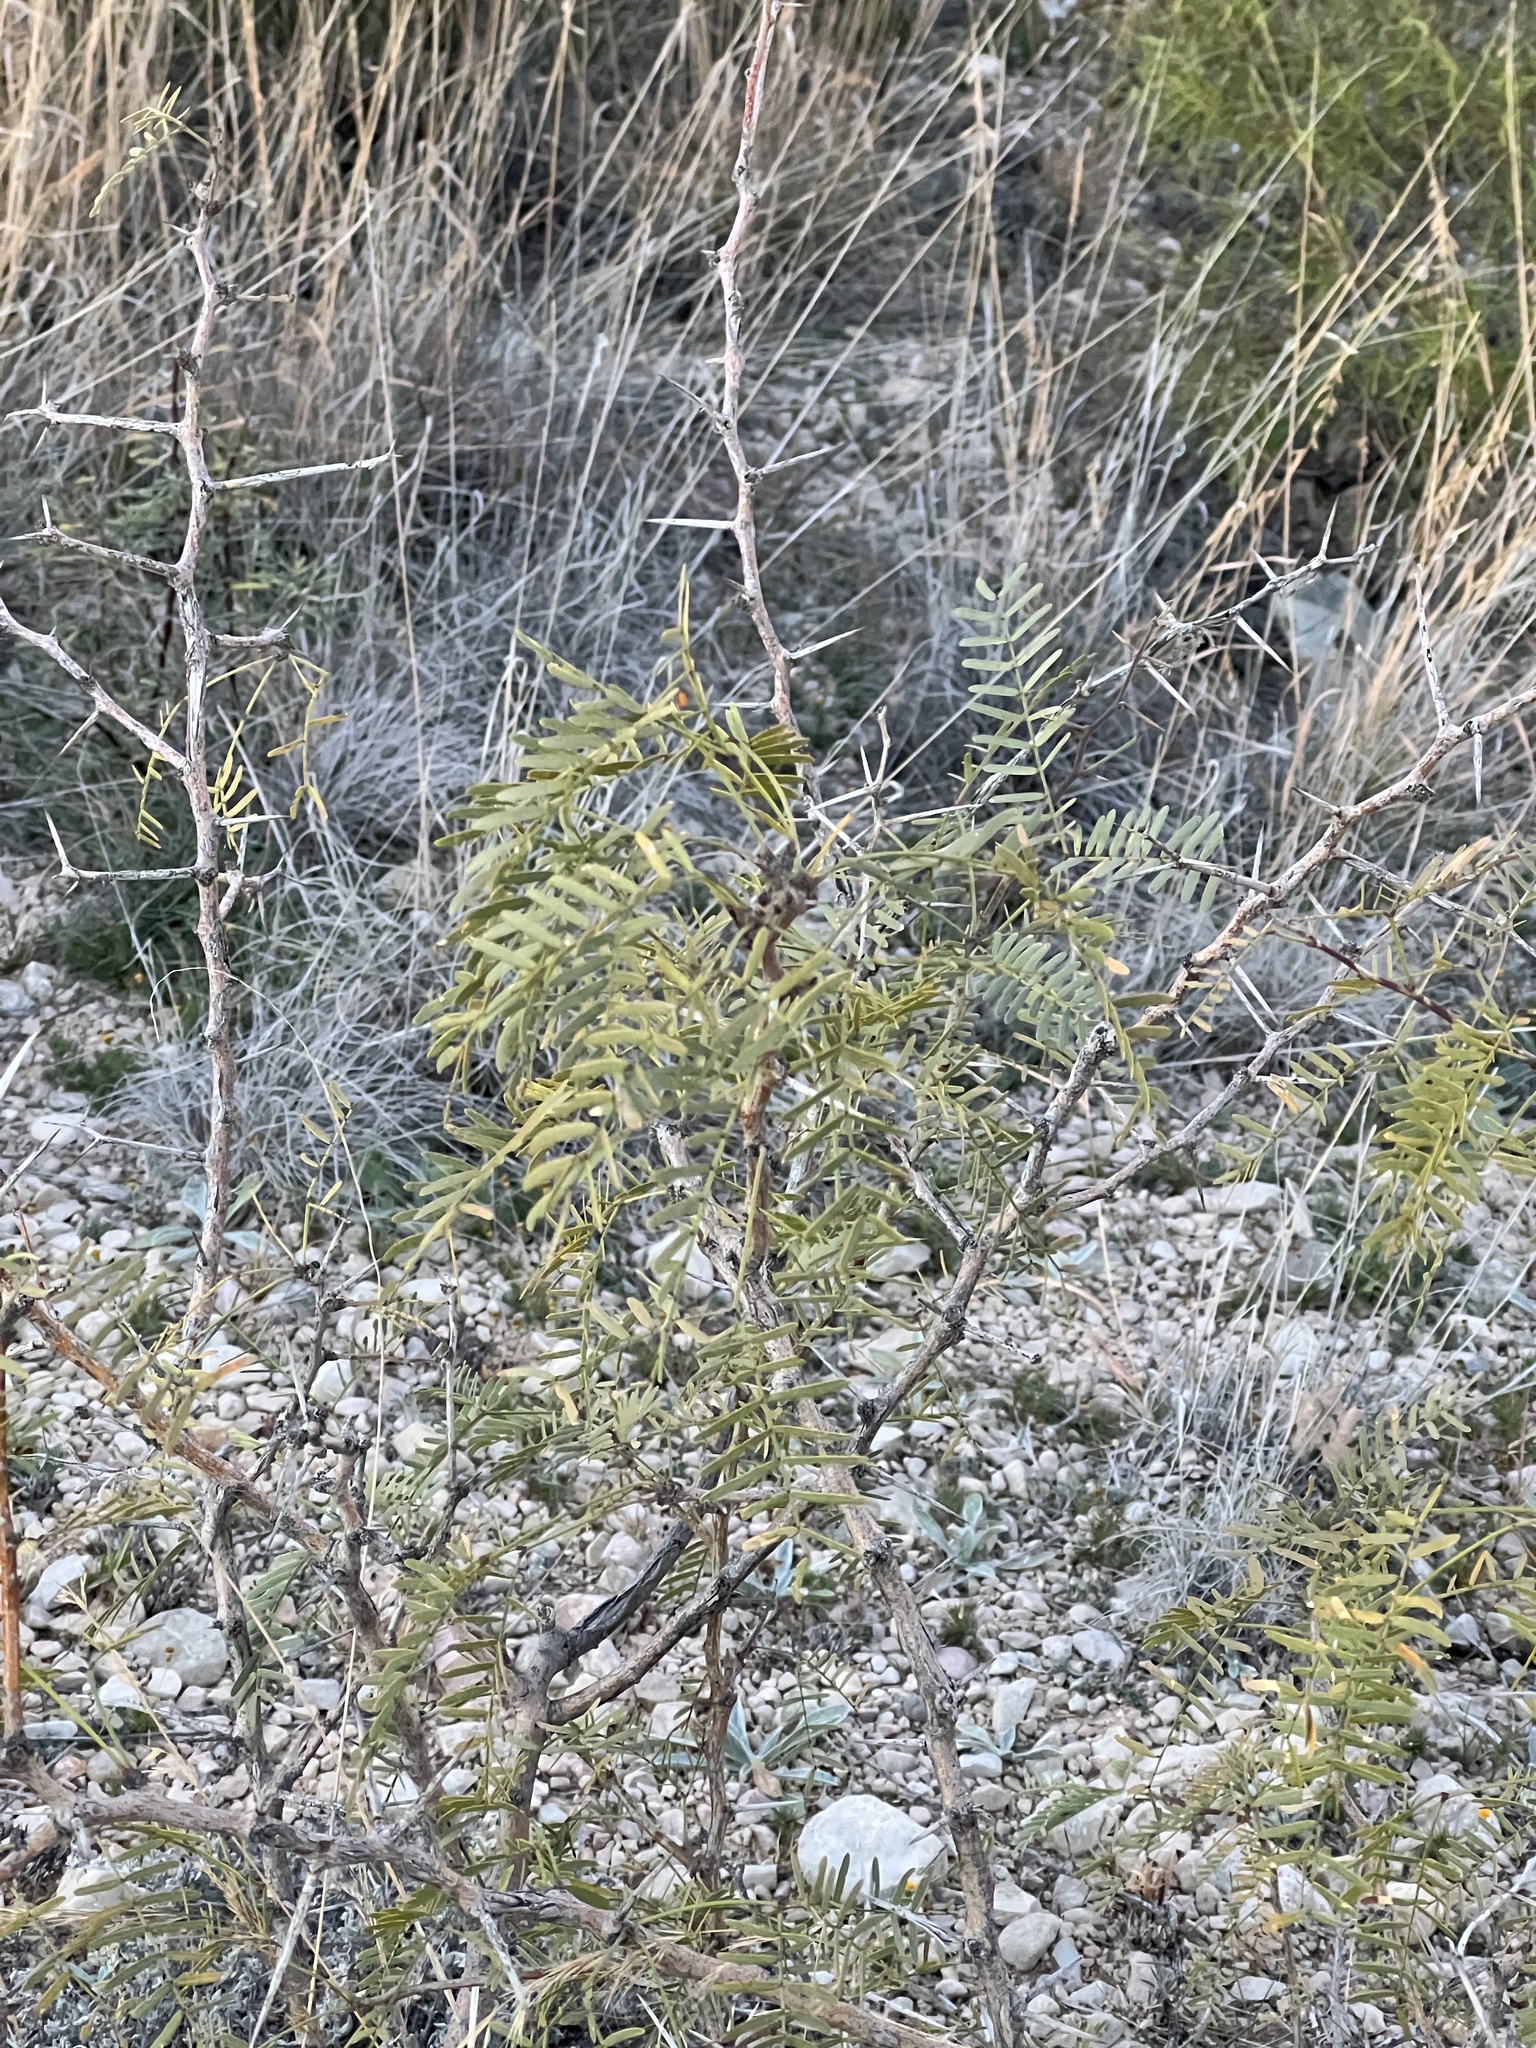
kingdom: Plantae
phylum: Tracheophyta
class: Magnoliopsida
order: Fabales
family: Fabaceae
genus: Prosopis
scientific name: Prosopis glandulosa
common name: Honey mesquite
